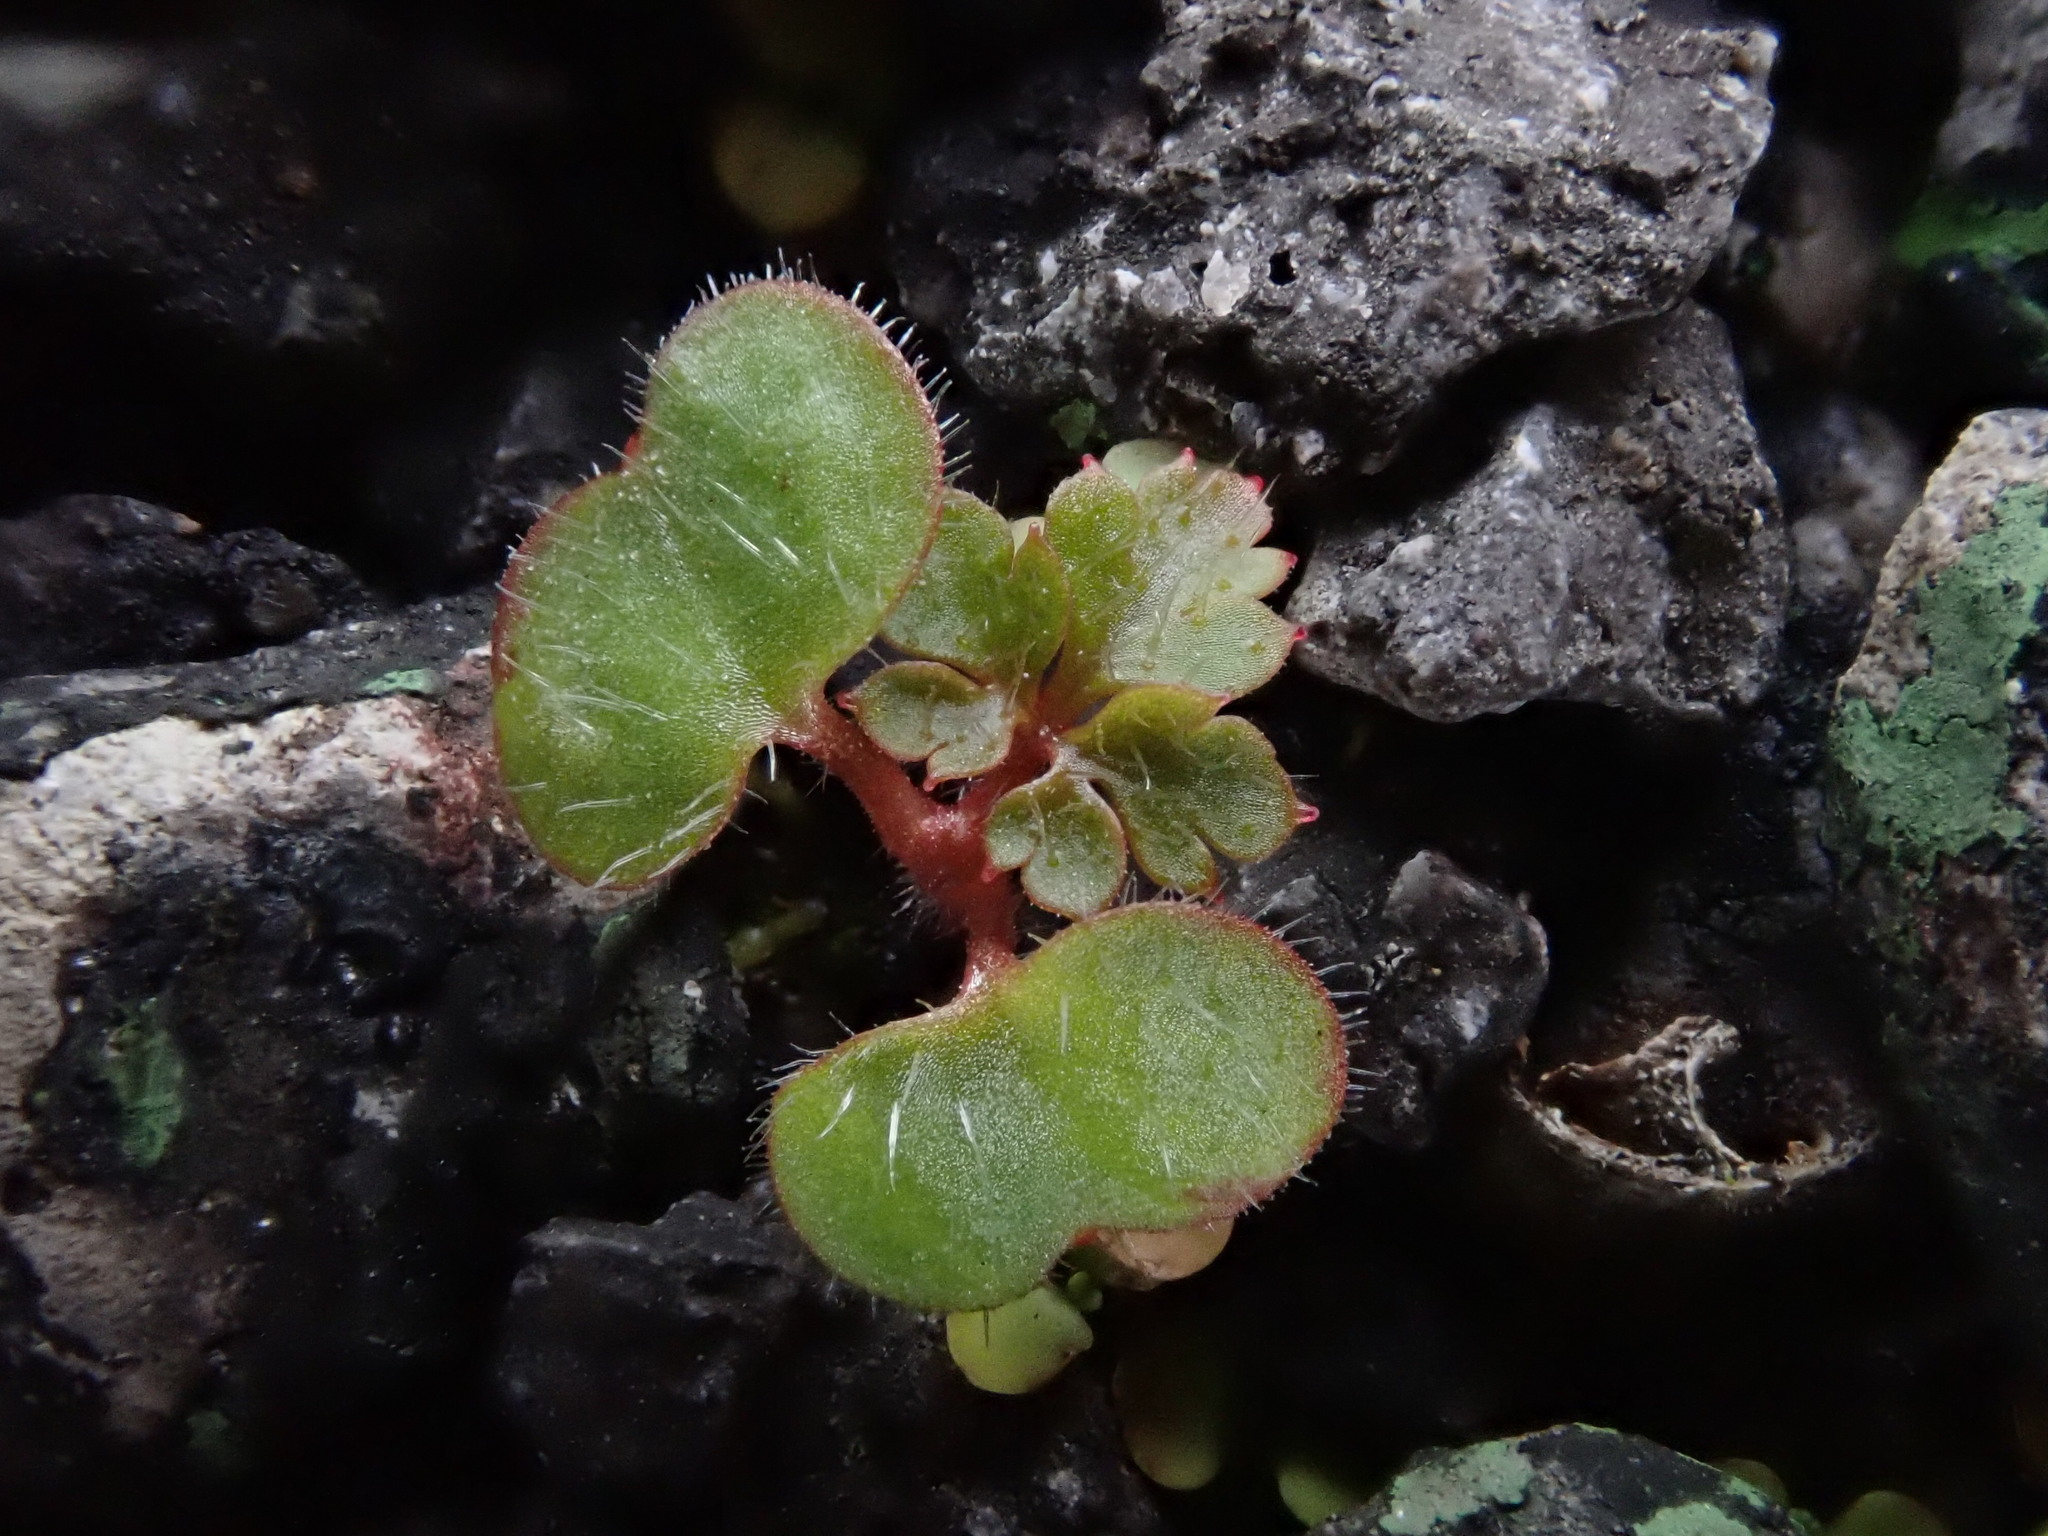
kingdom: Plantae
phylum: Tracheophyta
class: Magnoliopsida
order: Geraniales
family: Geraniaceae
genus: Geranium
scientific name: Geranium robertianum
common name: Herb-robert
